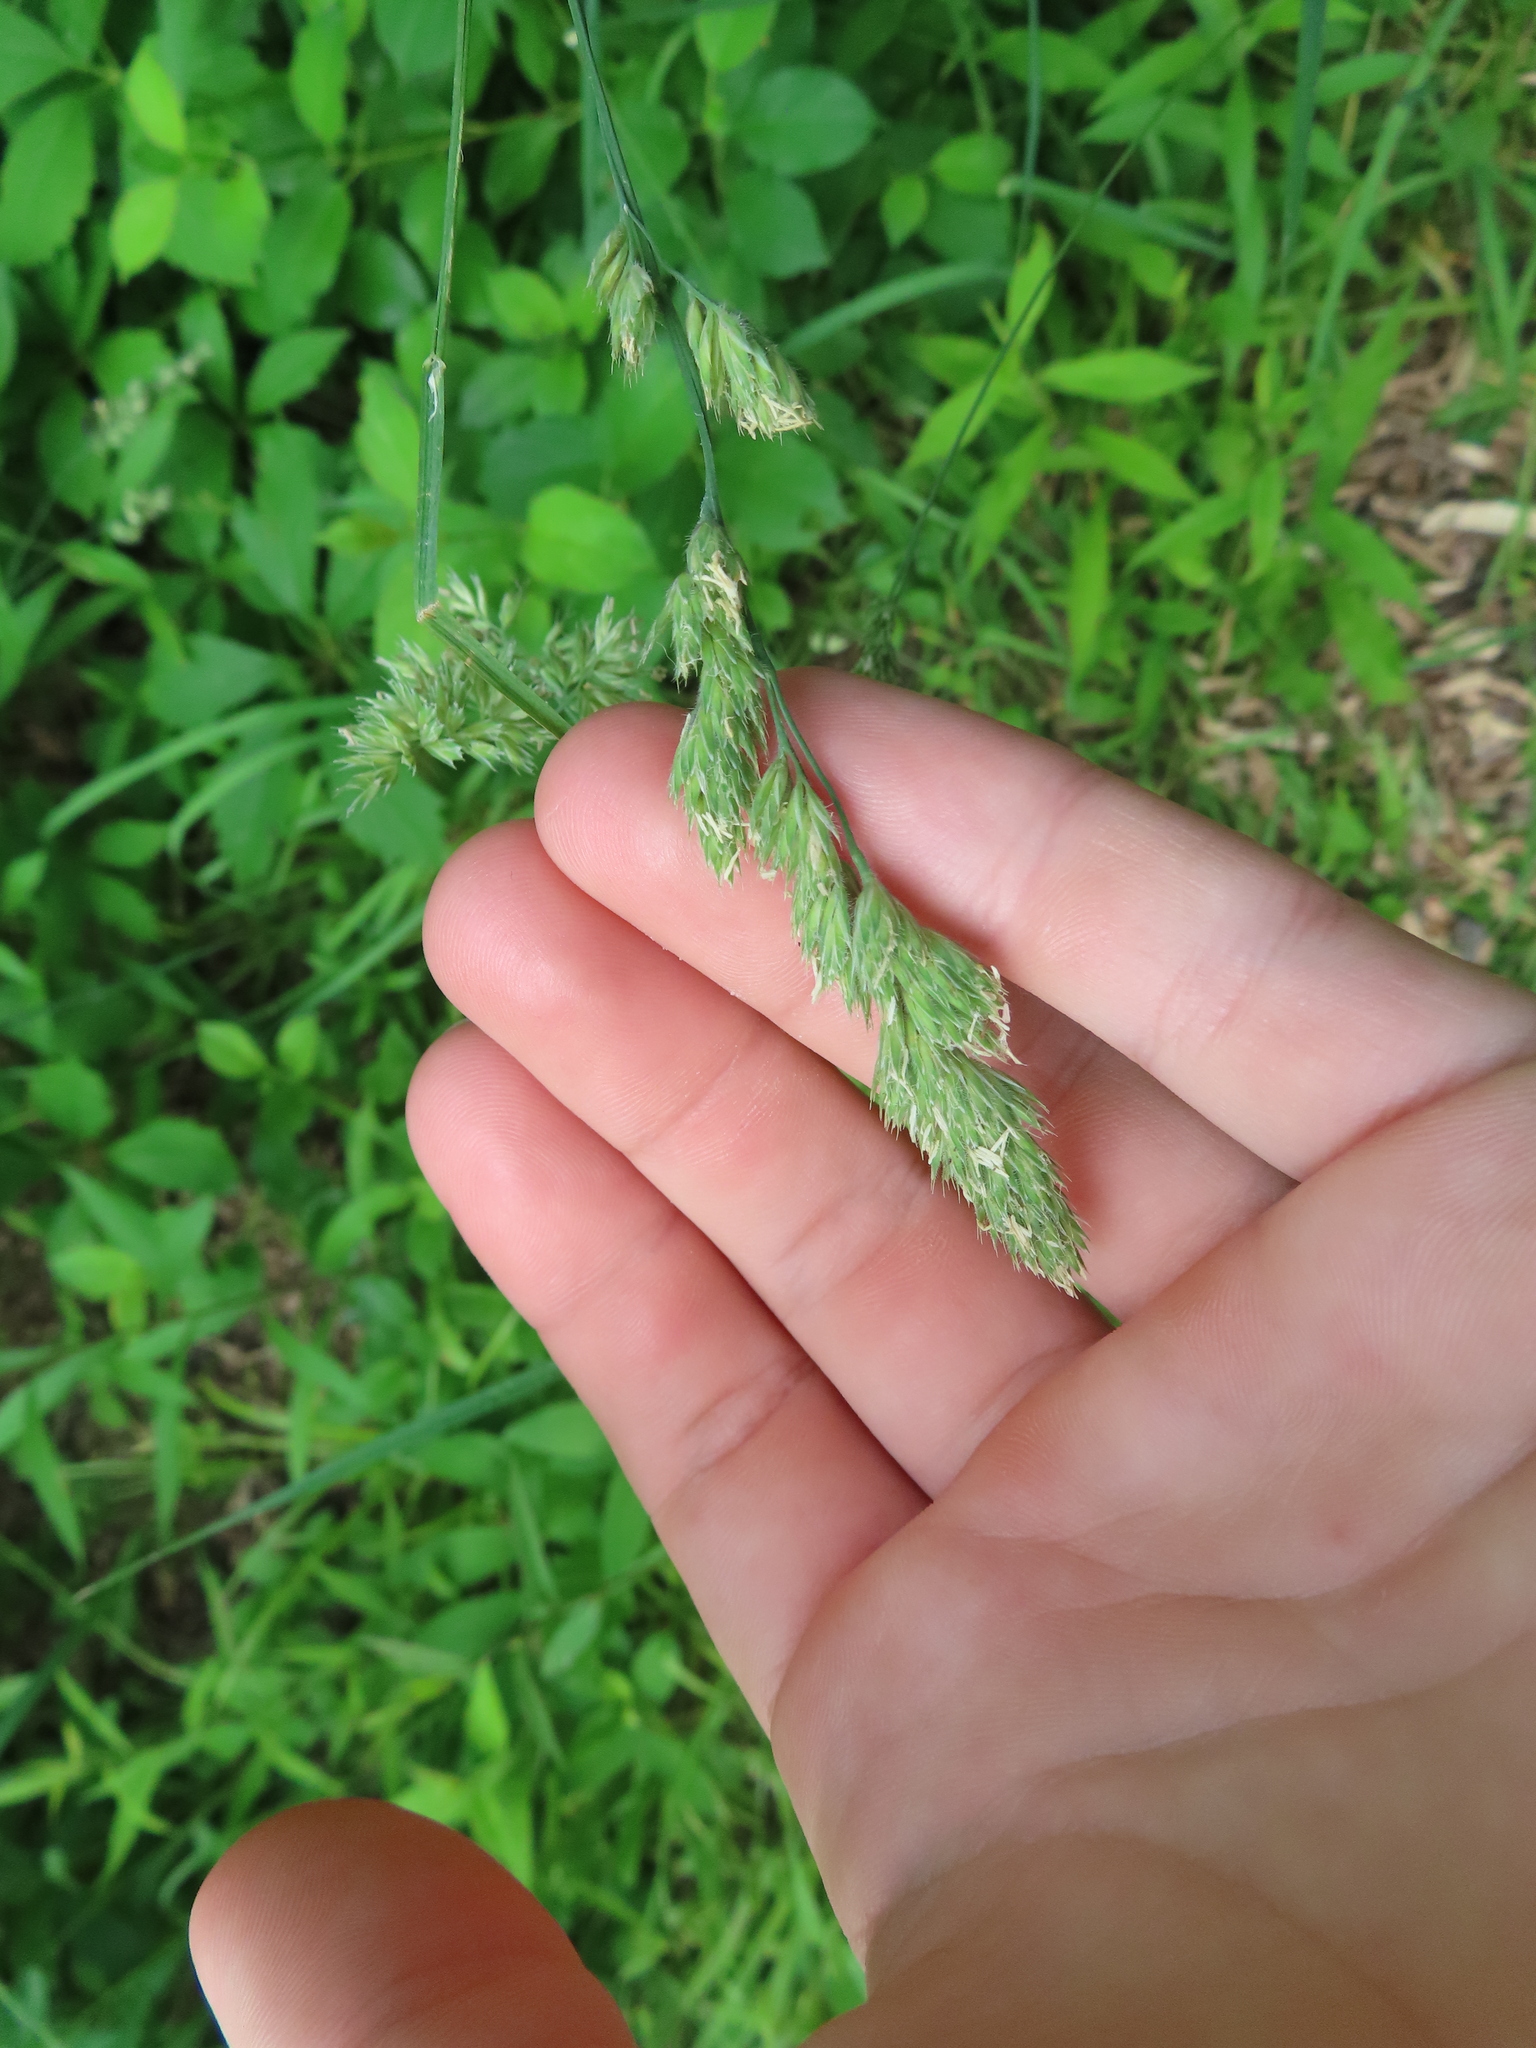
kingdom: Plantae
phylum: Tracheophyta
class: Liliopsida
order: Poales
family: Poaceae
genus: Dactylis
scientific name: Dactylis glomerata
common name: Orchardgrass
